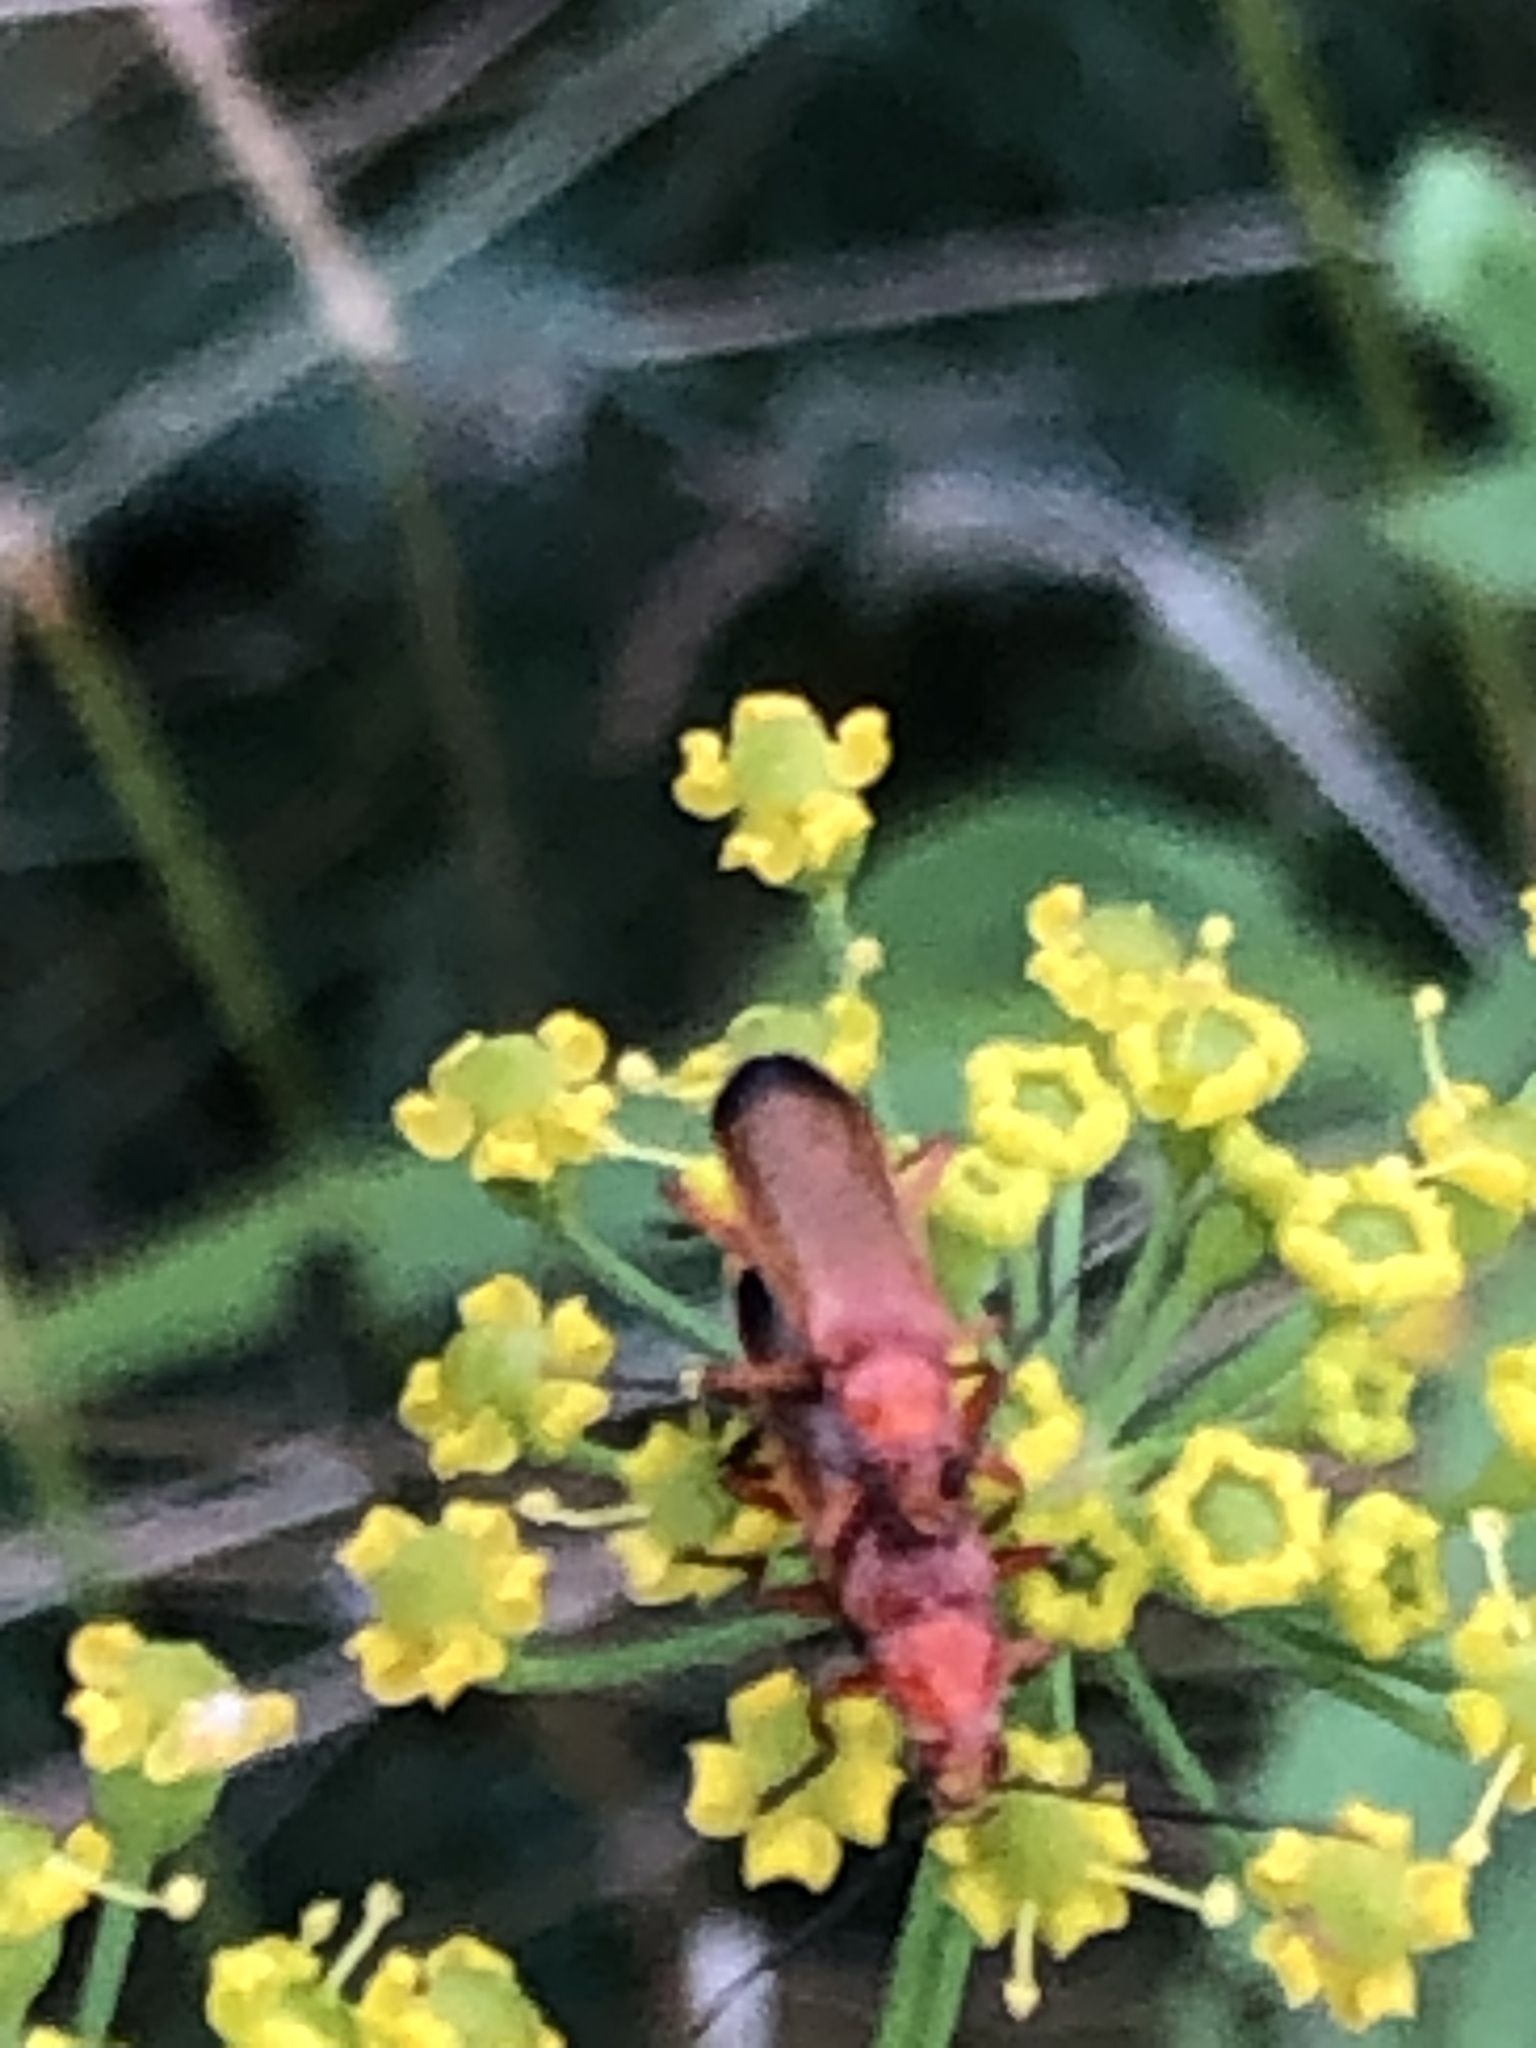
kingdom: Animalia
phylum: Arthropoda
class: Insecta
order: Coleoptera
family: Cantharidae
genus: Rhagonycha
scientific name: Rhagonycha fulva
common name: Common red soldier beetle
